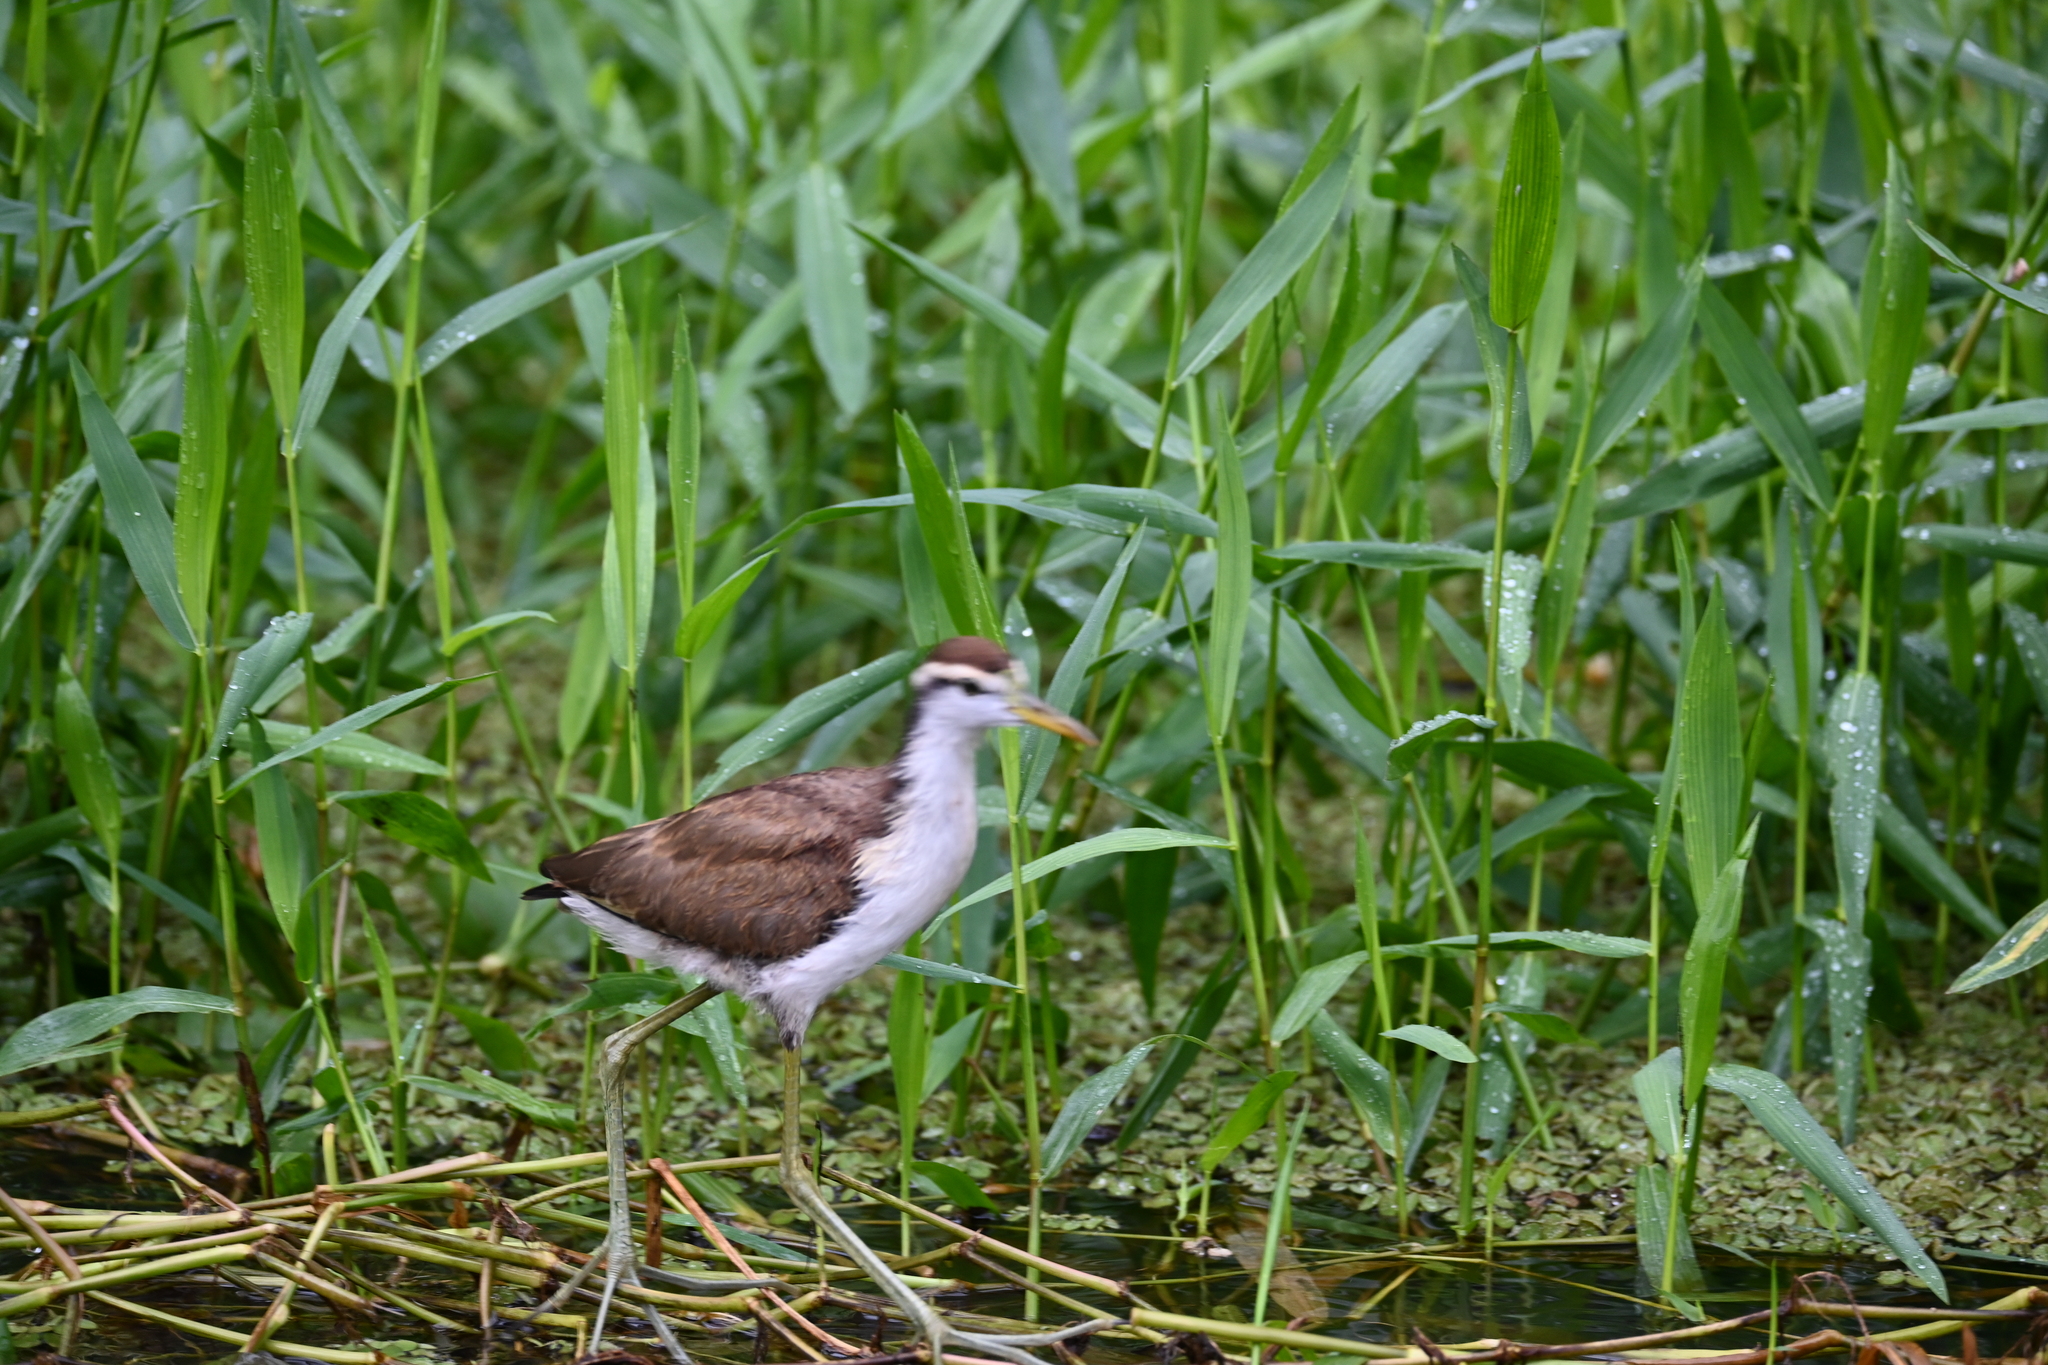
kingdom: Animalia
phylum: Chordata
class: Aves
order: Charadriiformes
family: Jacanidae
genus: Jacana
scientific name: Jacana spinosa
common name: Northern jacana
